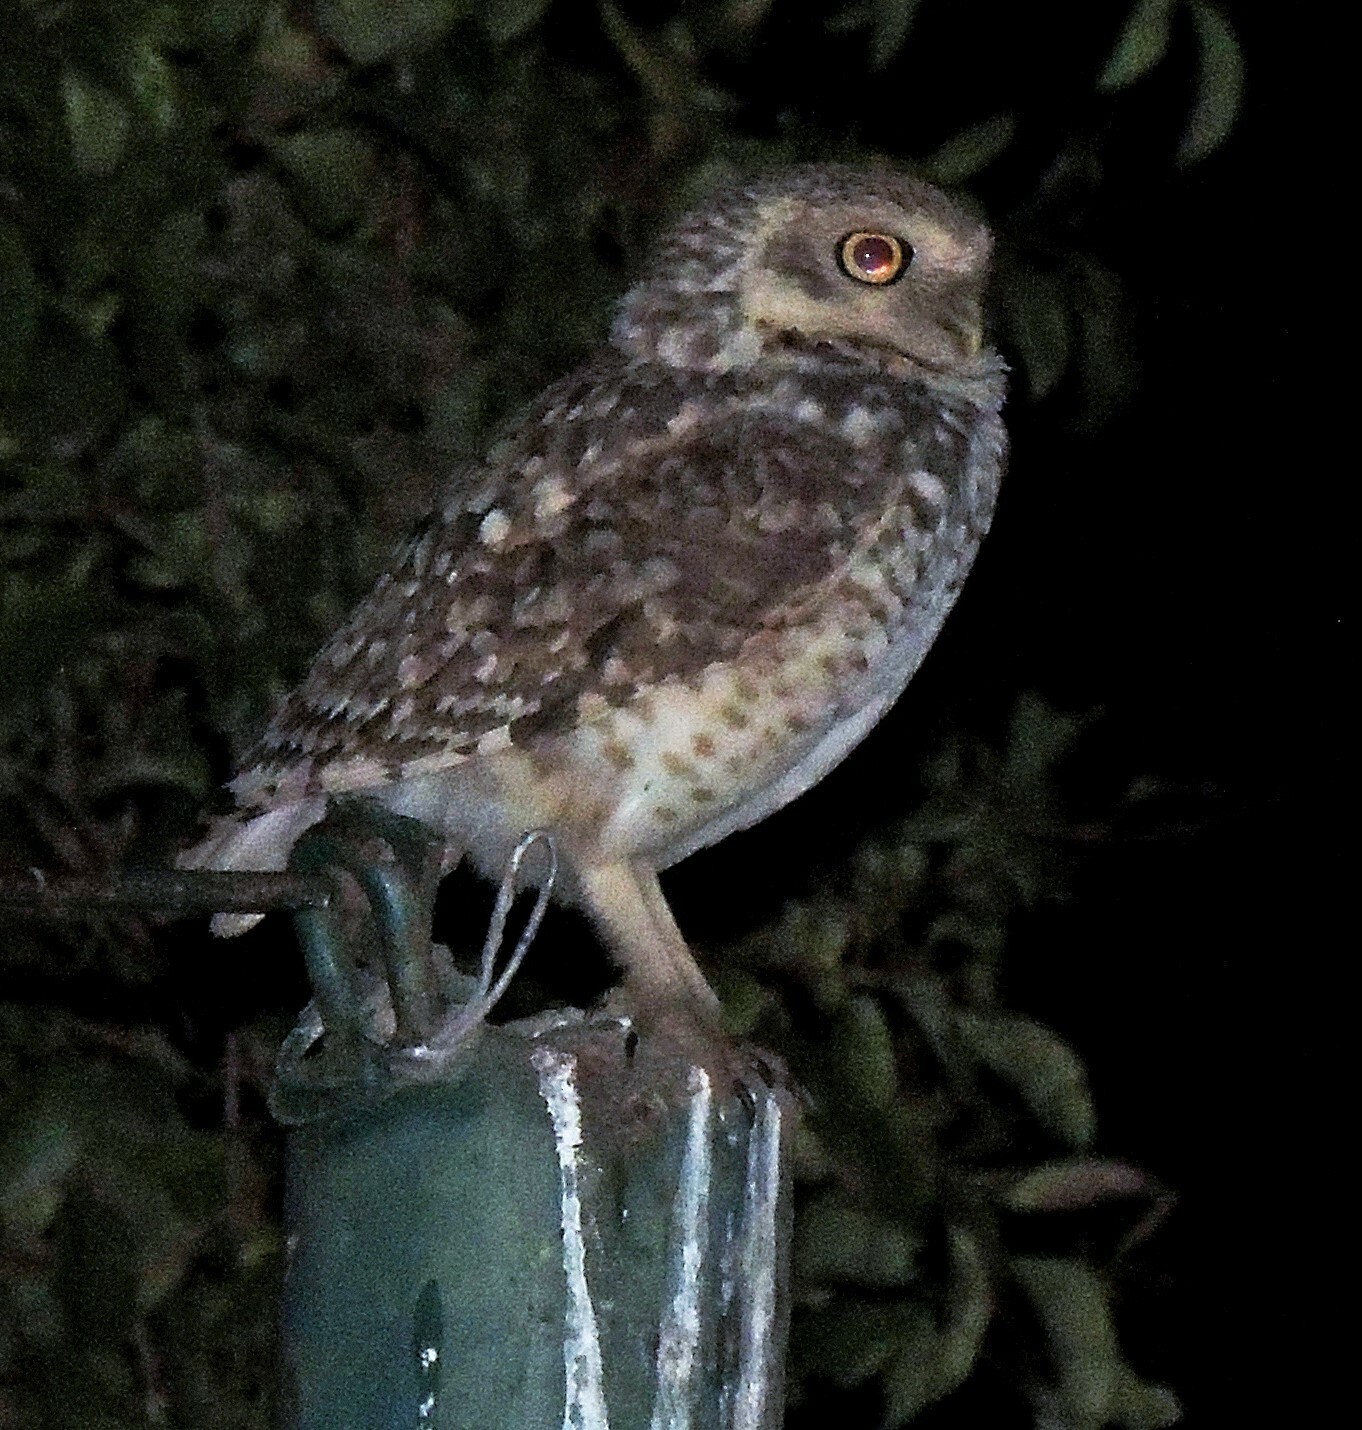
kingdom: Animalia
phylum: Chordata
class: Aves
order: Strigiformes
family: Strigidae
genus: Athene
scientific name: Athene cunicularia
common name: Burrowing owl
